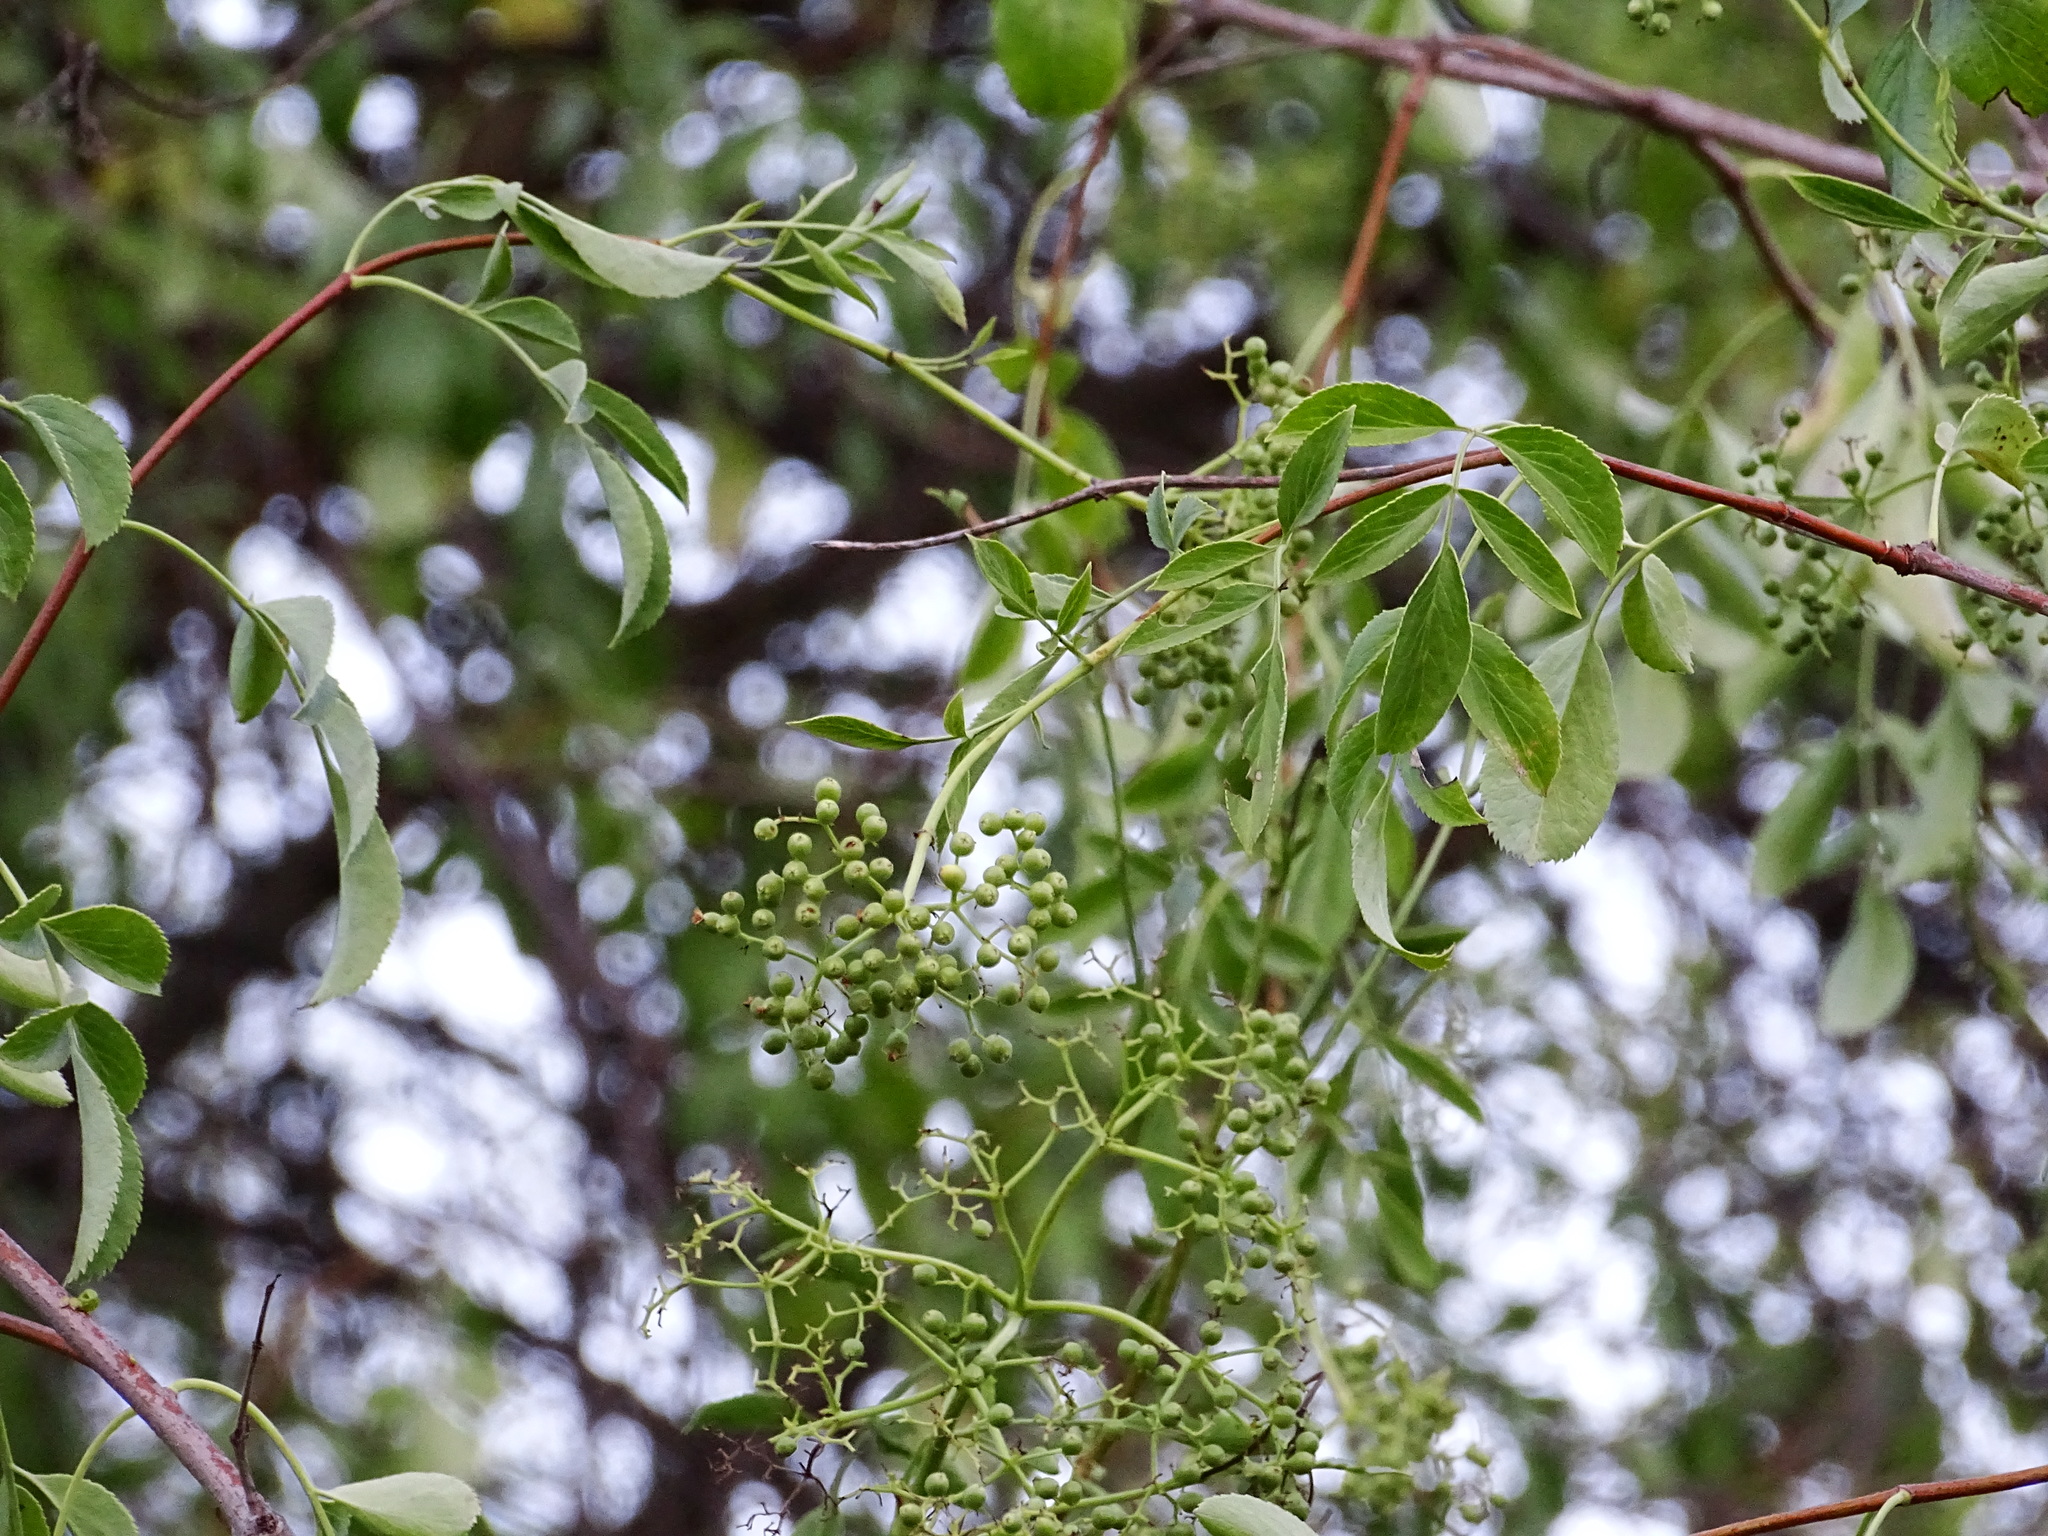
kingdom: Plantae
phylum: Tracheophyta
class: Magnoliopsida
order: Dipsacales
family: Viburnaceae
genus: Sambucus
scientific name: Sambucus cerulea
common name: Blue elder
